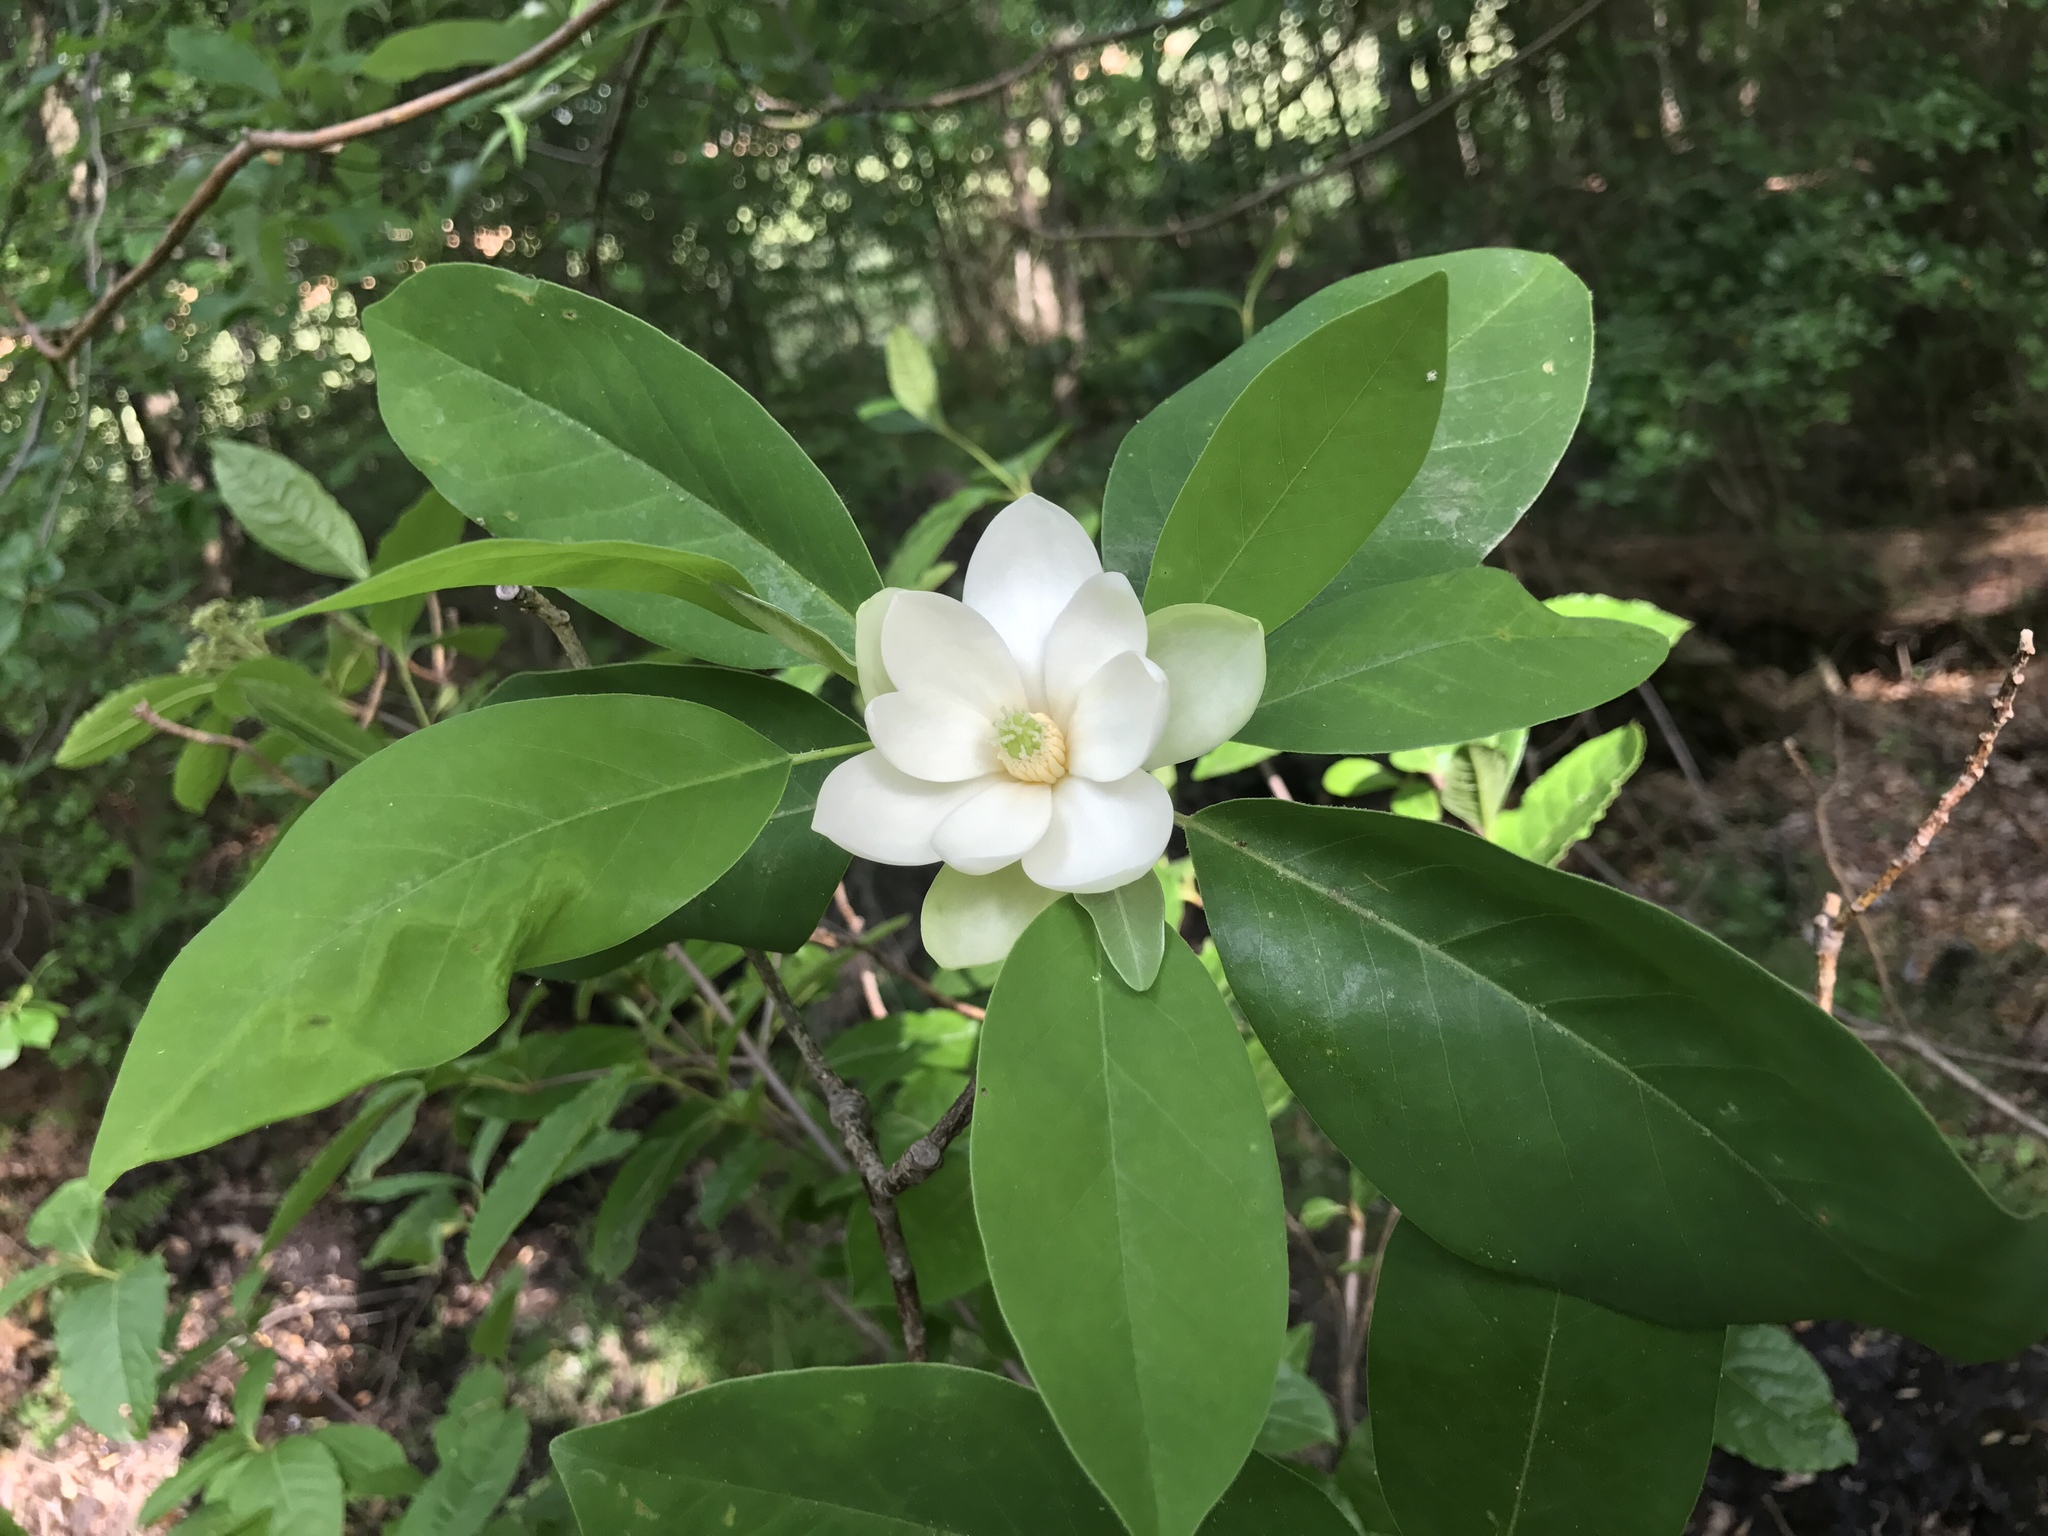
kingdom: Plantae
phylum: Tracheophyta
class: Magnoliopsida
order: Magnoliales
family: Magnoliaceae
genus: Magnolia
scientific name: Magnolia virginiana
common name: Swamp bay
